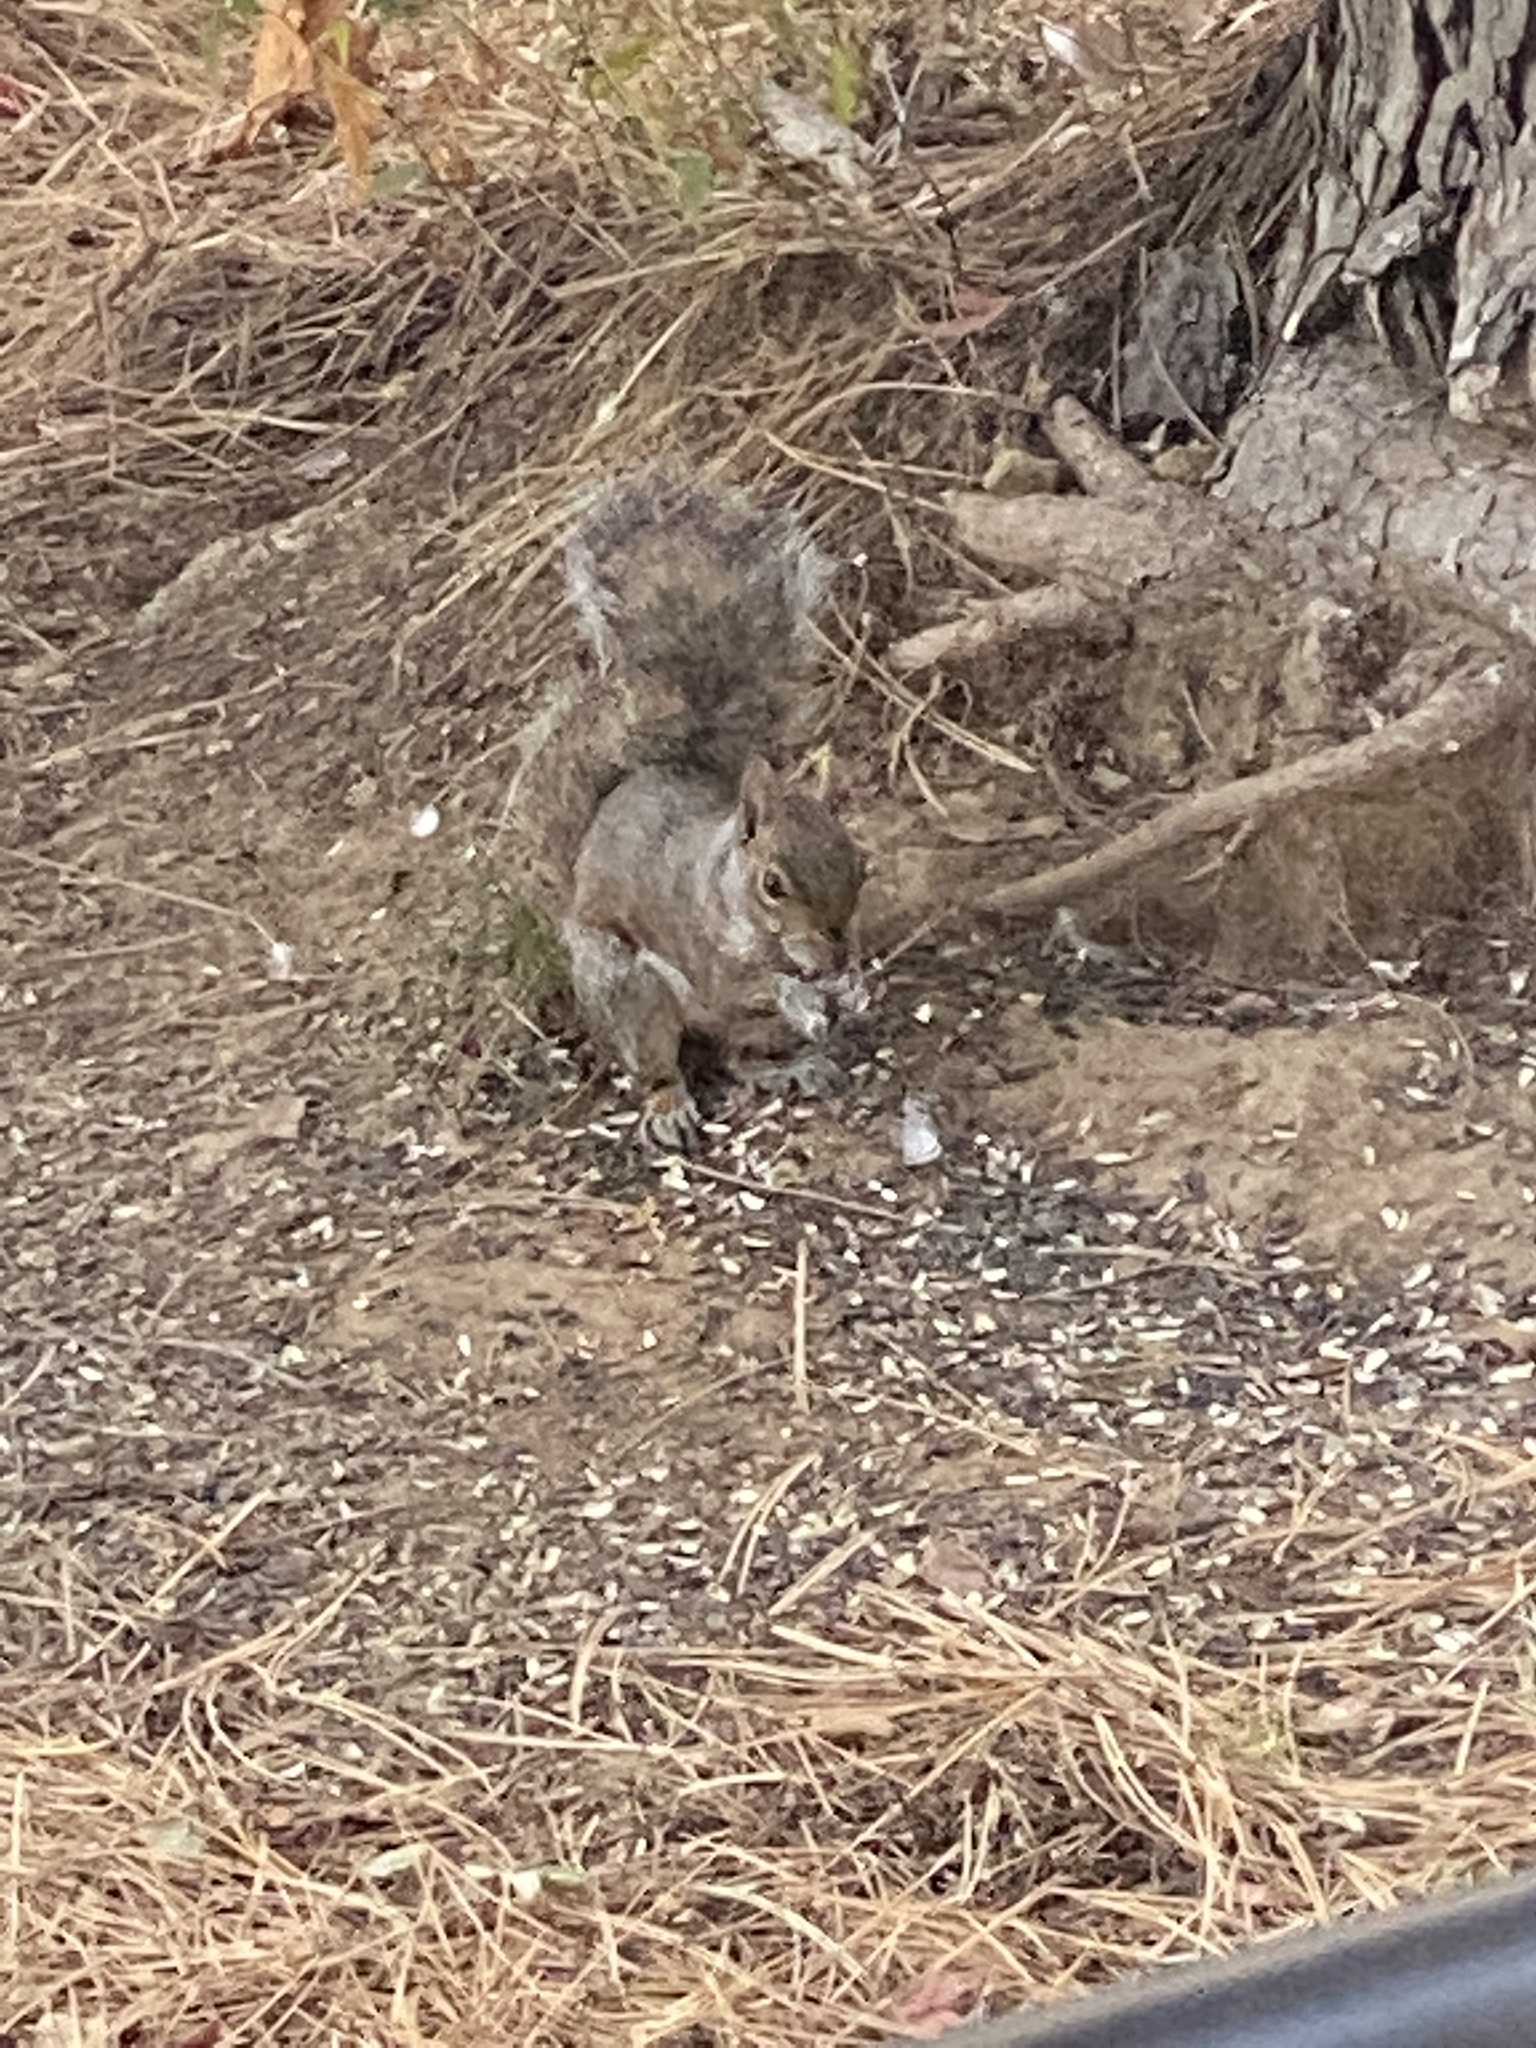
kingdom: Animalia
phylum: Chordata
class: Mammalia
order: Rodentia
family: Sciuridae
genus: Sciurus
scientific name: Sciurus carolinensis
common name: Eastern gray squirrel
